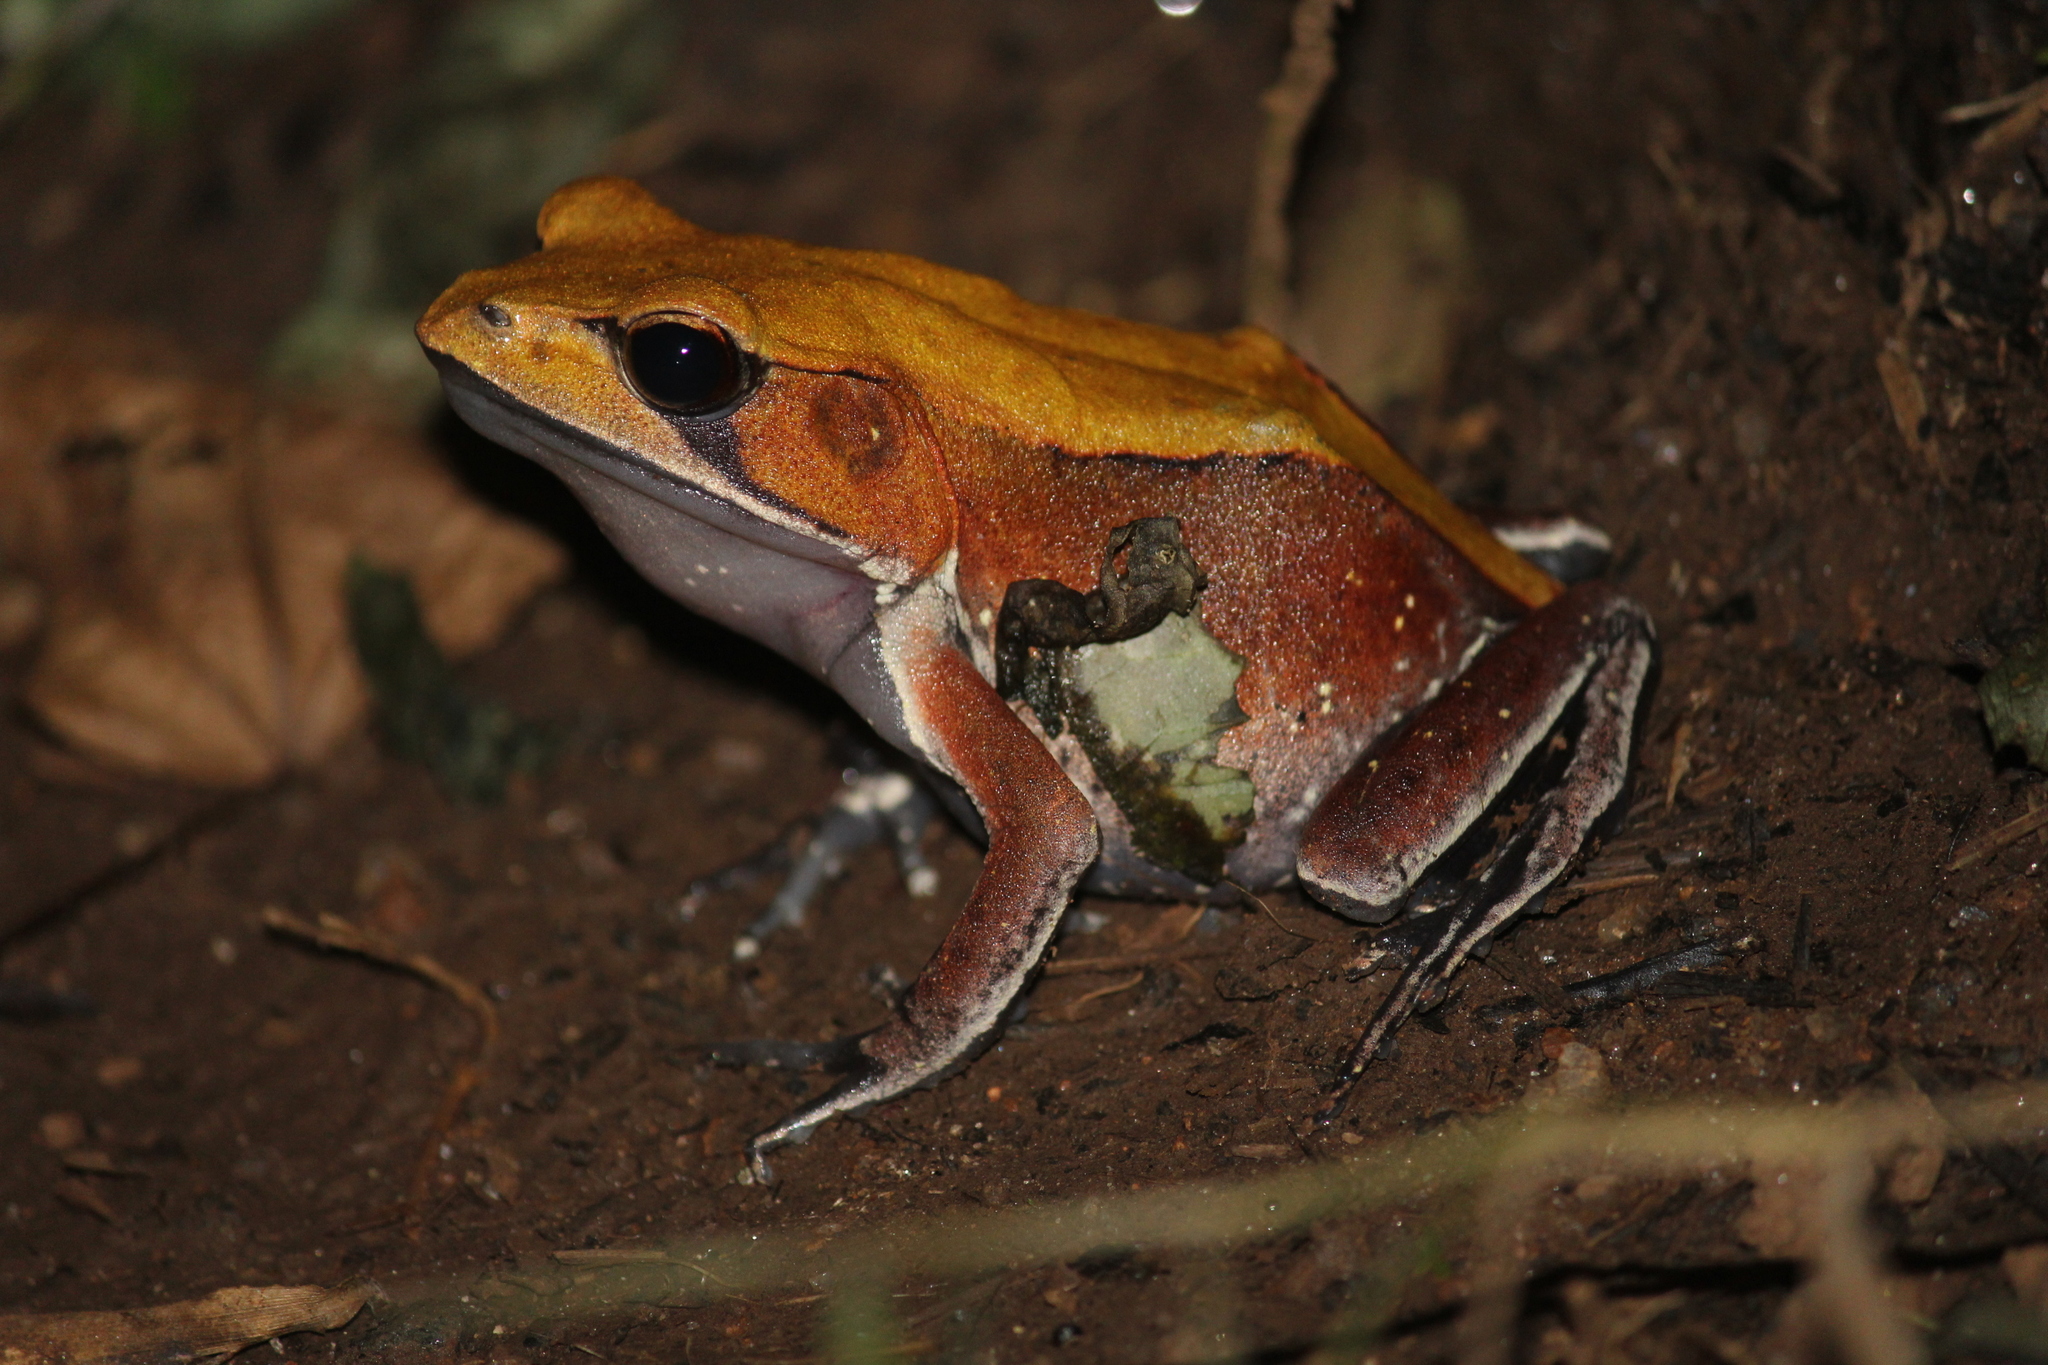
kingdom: Animalia
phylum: Chordata
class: Amphibia
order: Anura
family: Ranidae
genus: Clinotarsus
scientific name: Clinotarsus curtipes
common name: Bicoloured frog
